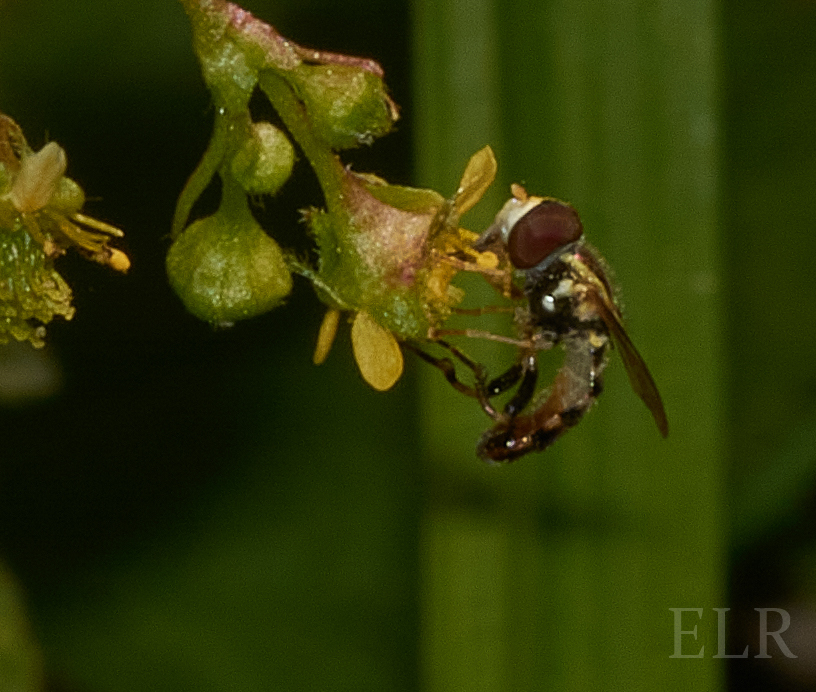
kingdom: Animalia
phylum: Arthropoda
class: Insecta
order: Diptera
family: Syrphidae
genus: Toxomerus
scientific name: Toxomerus geminatus
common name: Eastern calligrapher
